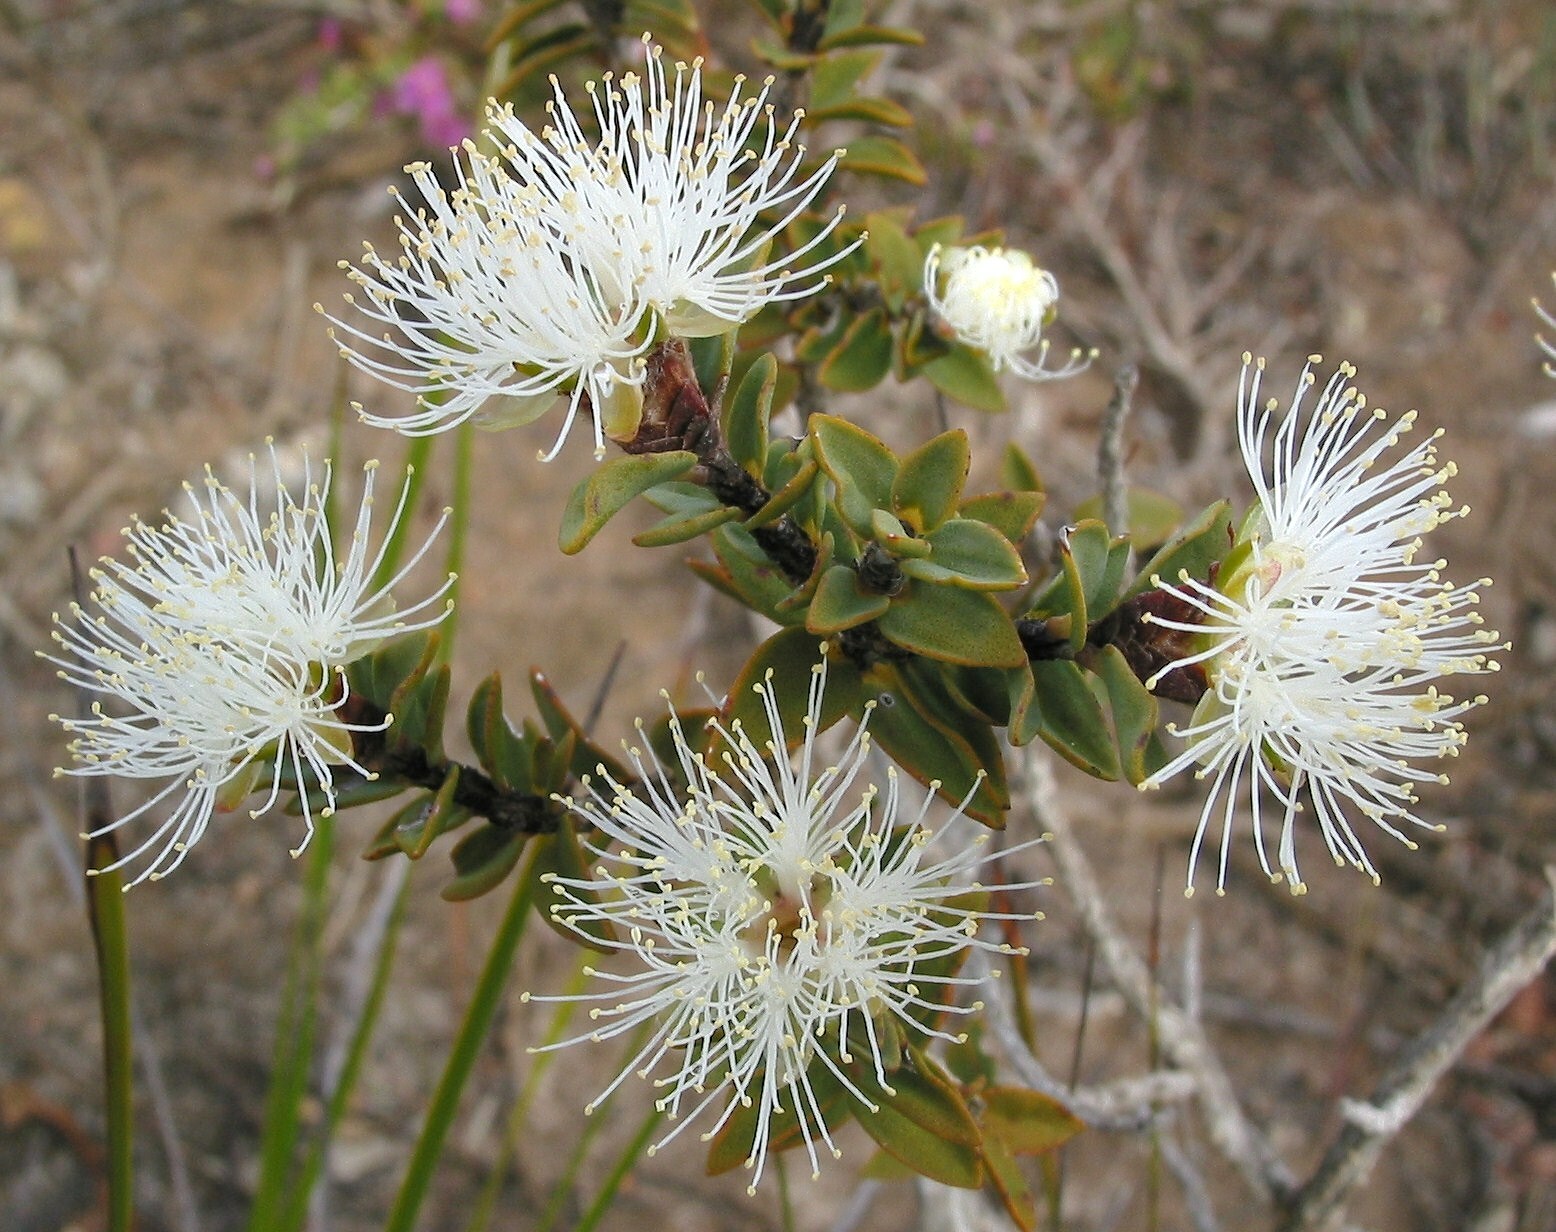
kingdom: Plantae
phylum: Tracheophyta
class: Magnoliopsida
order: Myrtales
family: Myrtaceae
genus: Melaleuca
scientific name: Melaleuca calycina
